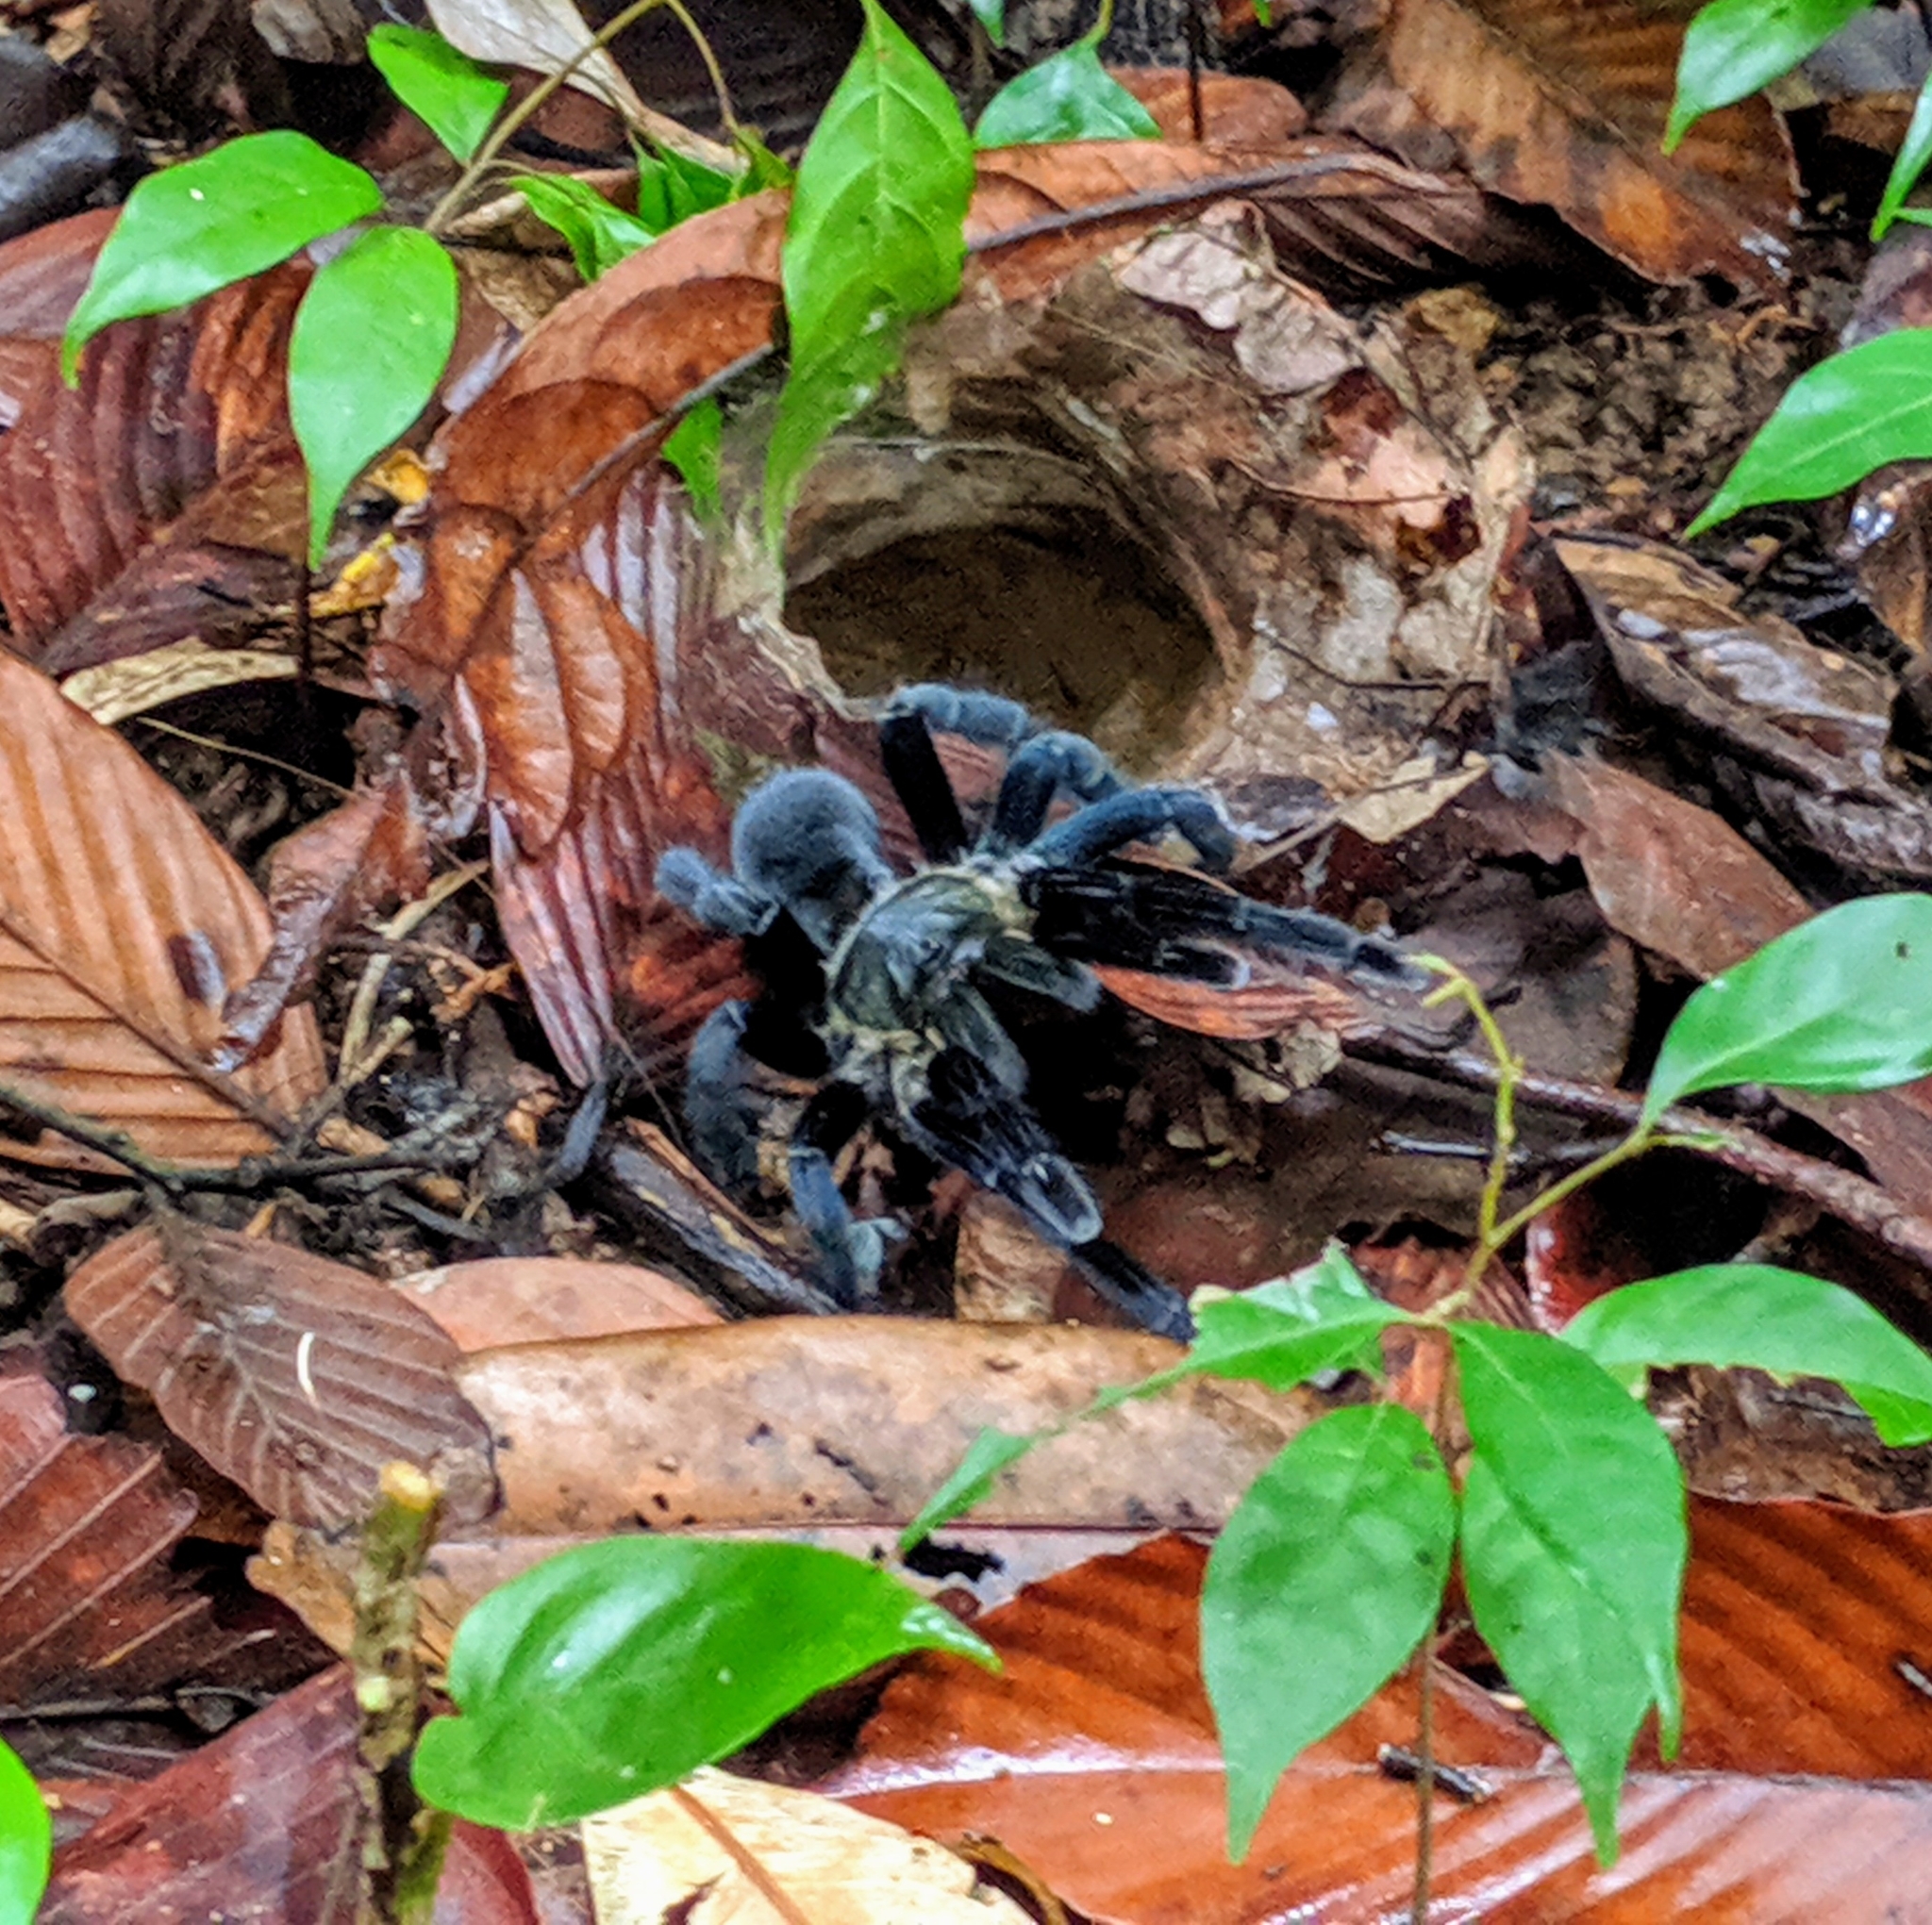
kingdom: Animalia
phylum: Arthropoda
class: Arachnida
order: Araneae
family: Theraphosidae
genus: Cyriopagopus
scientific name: Cyriopagopus minax
